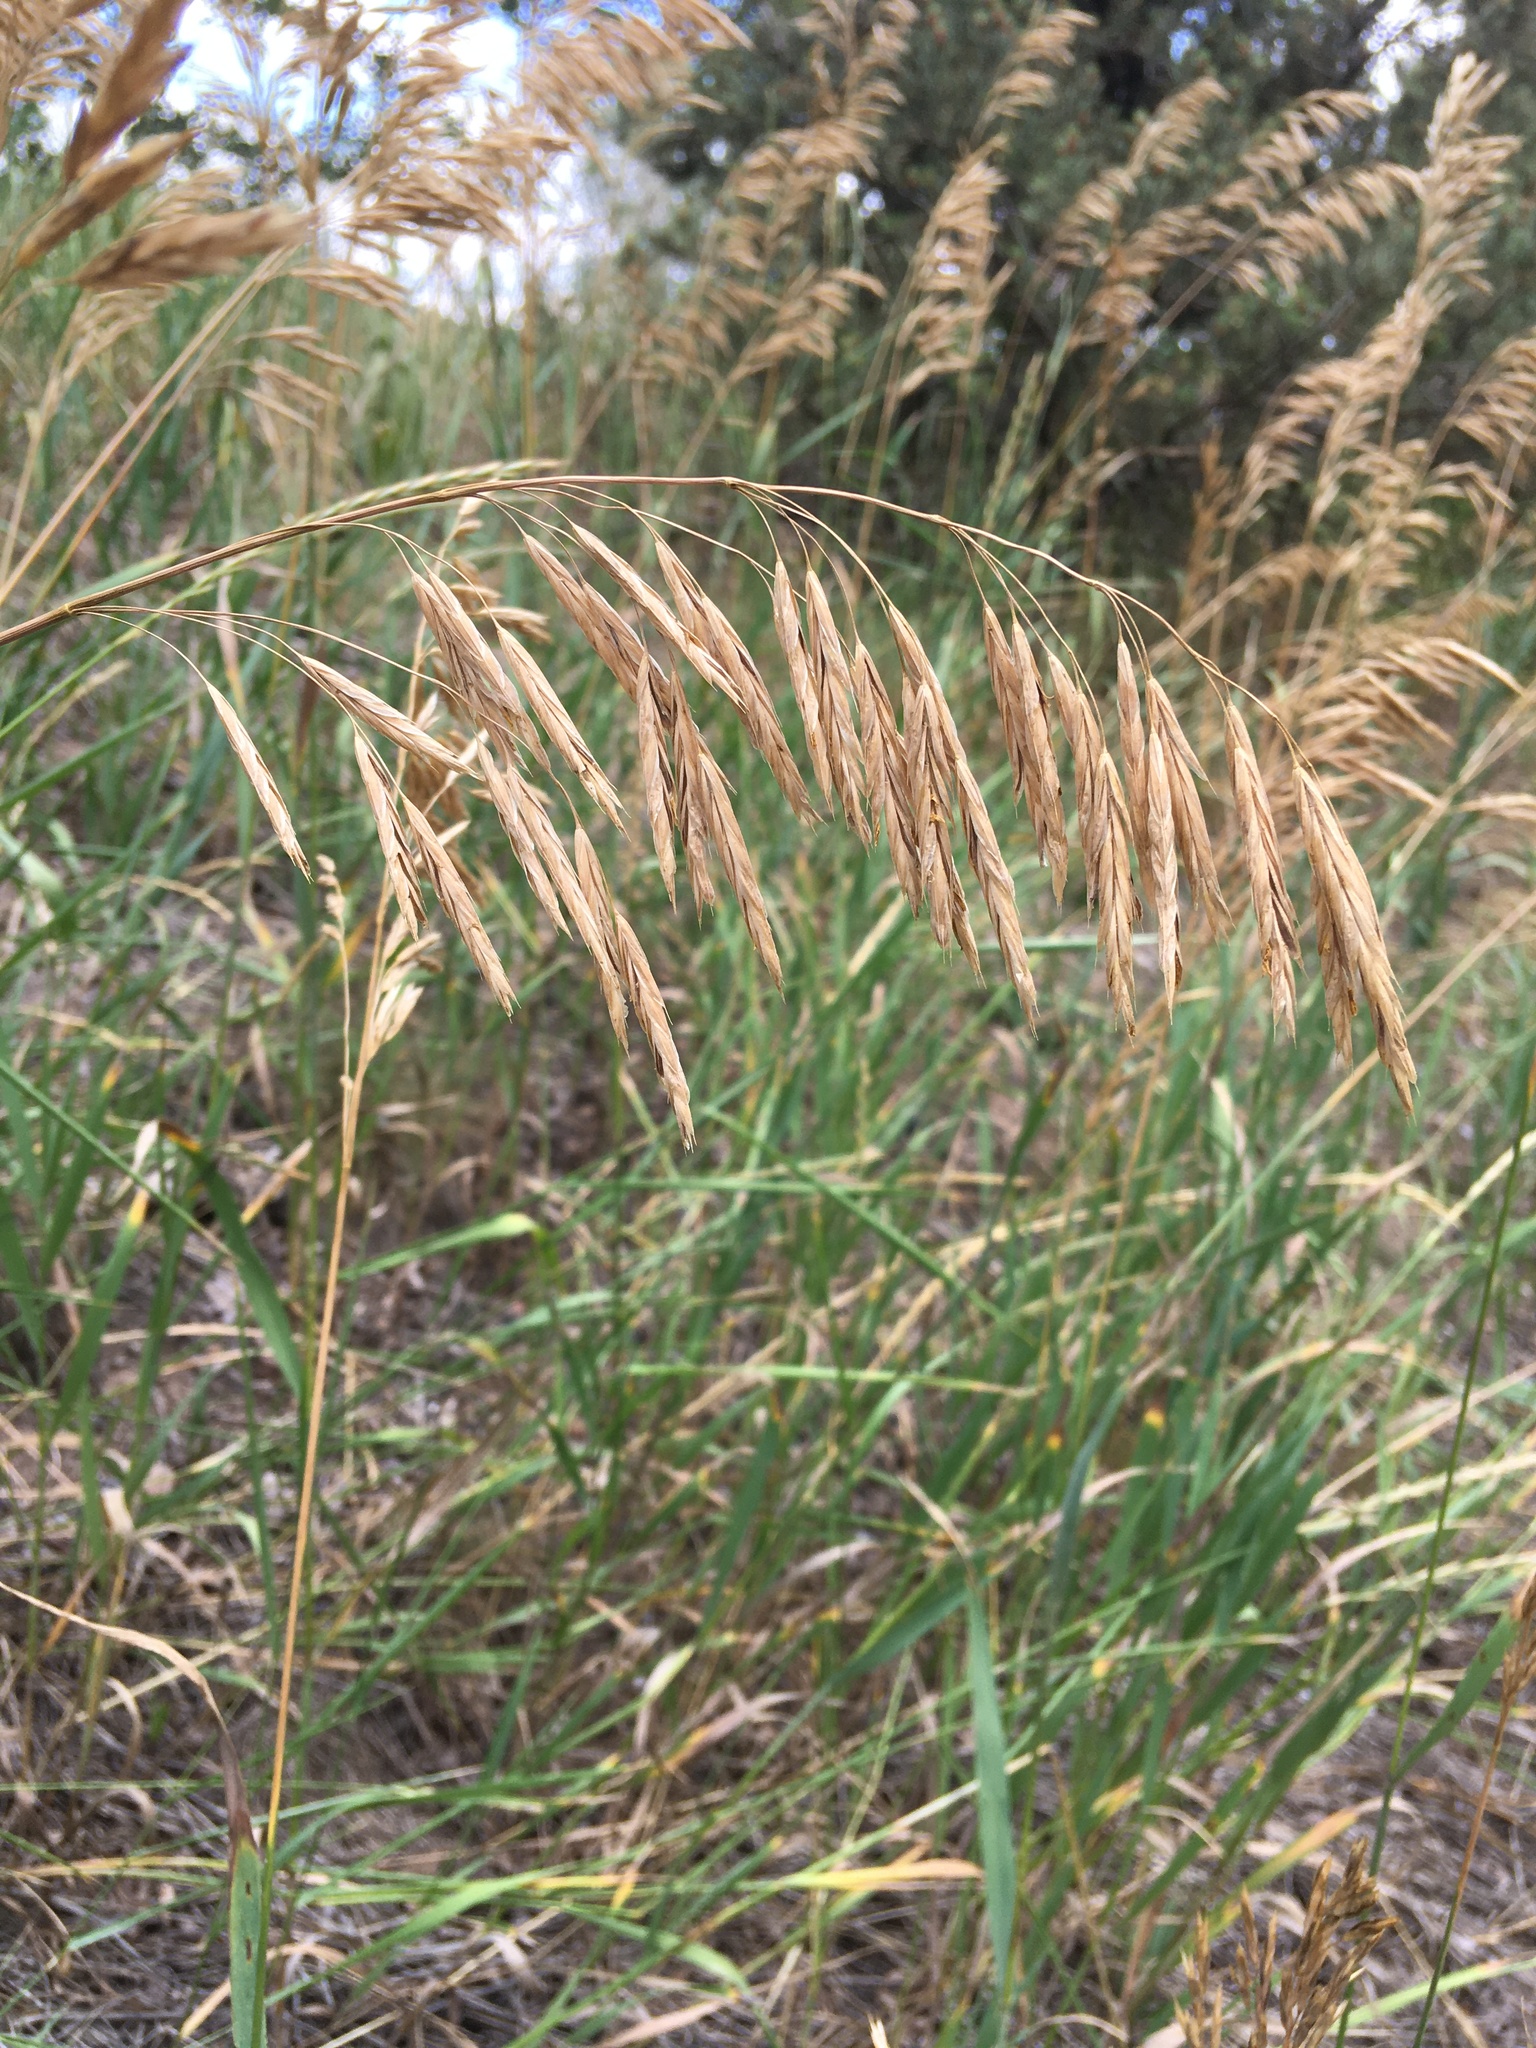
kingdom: Plantae
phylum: Tracheophyta
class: Liliopsida
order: Poales
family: Poaceae
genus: Bromus
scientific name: Bromus inermis
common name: Smooth brome
